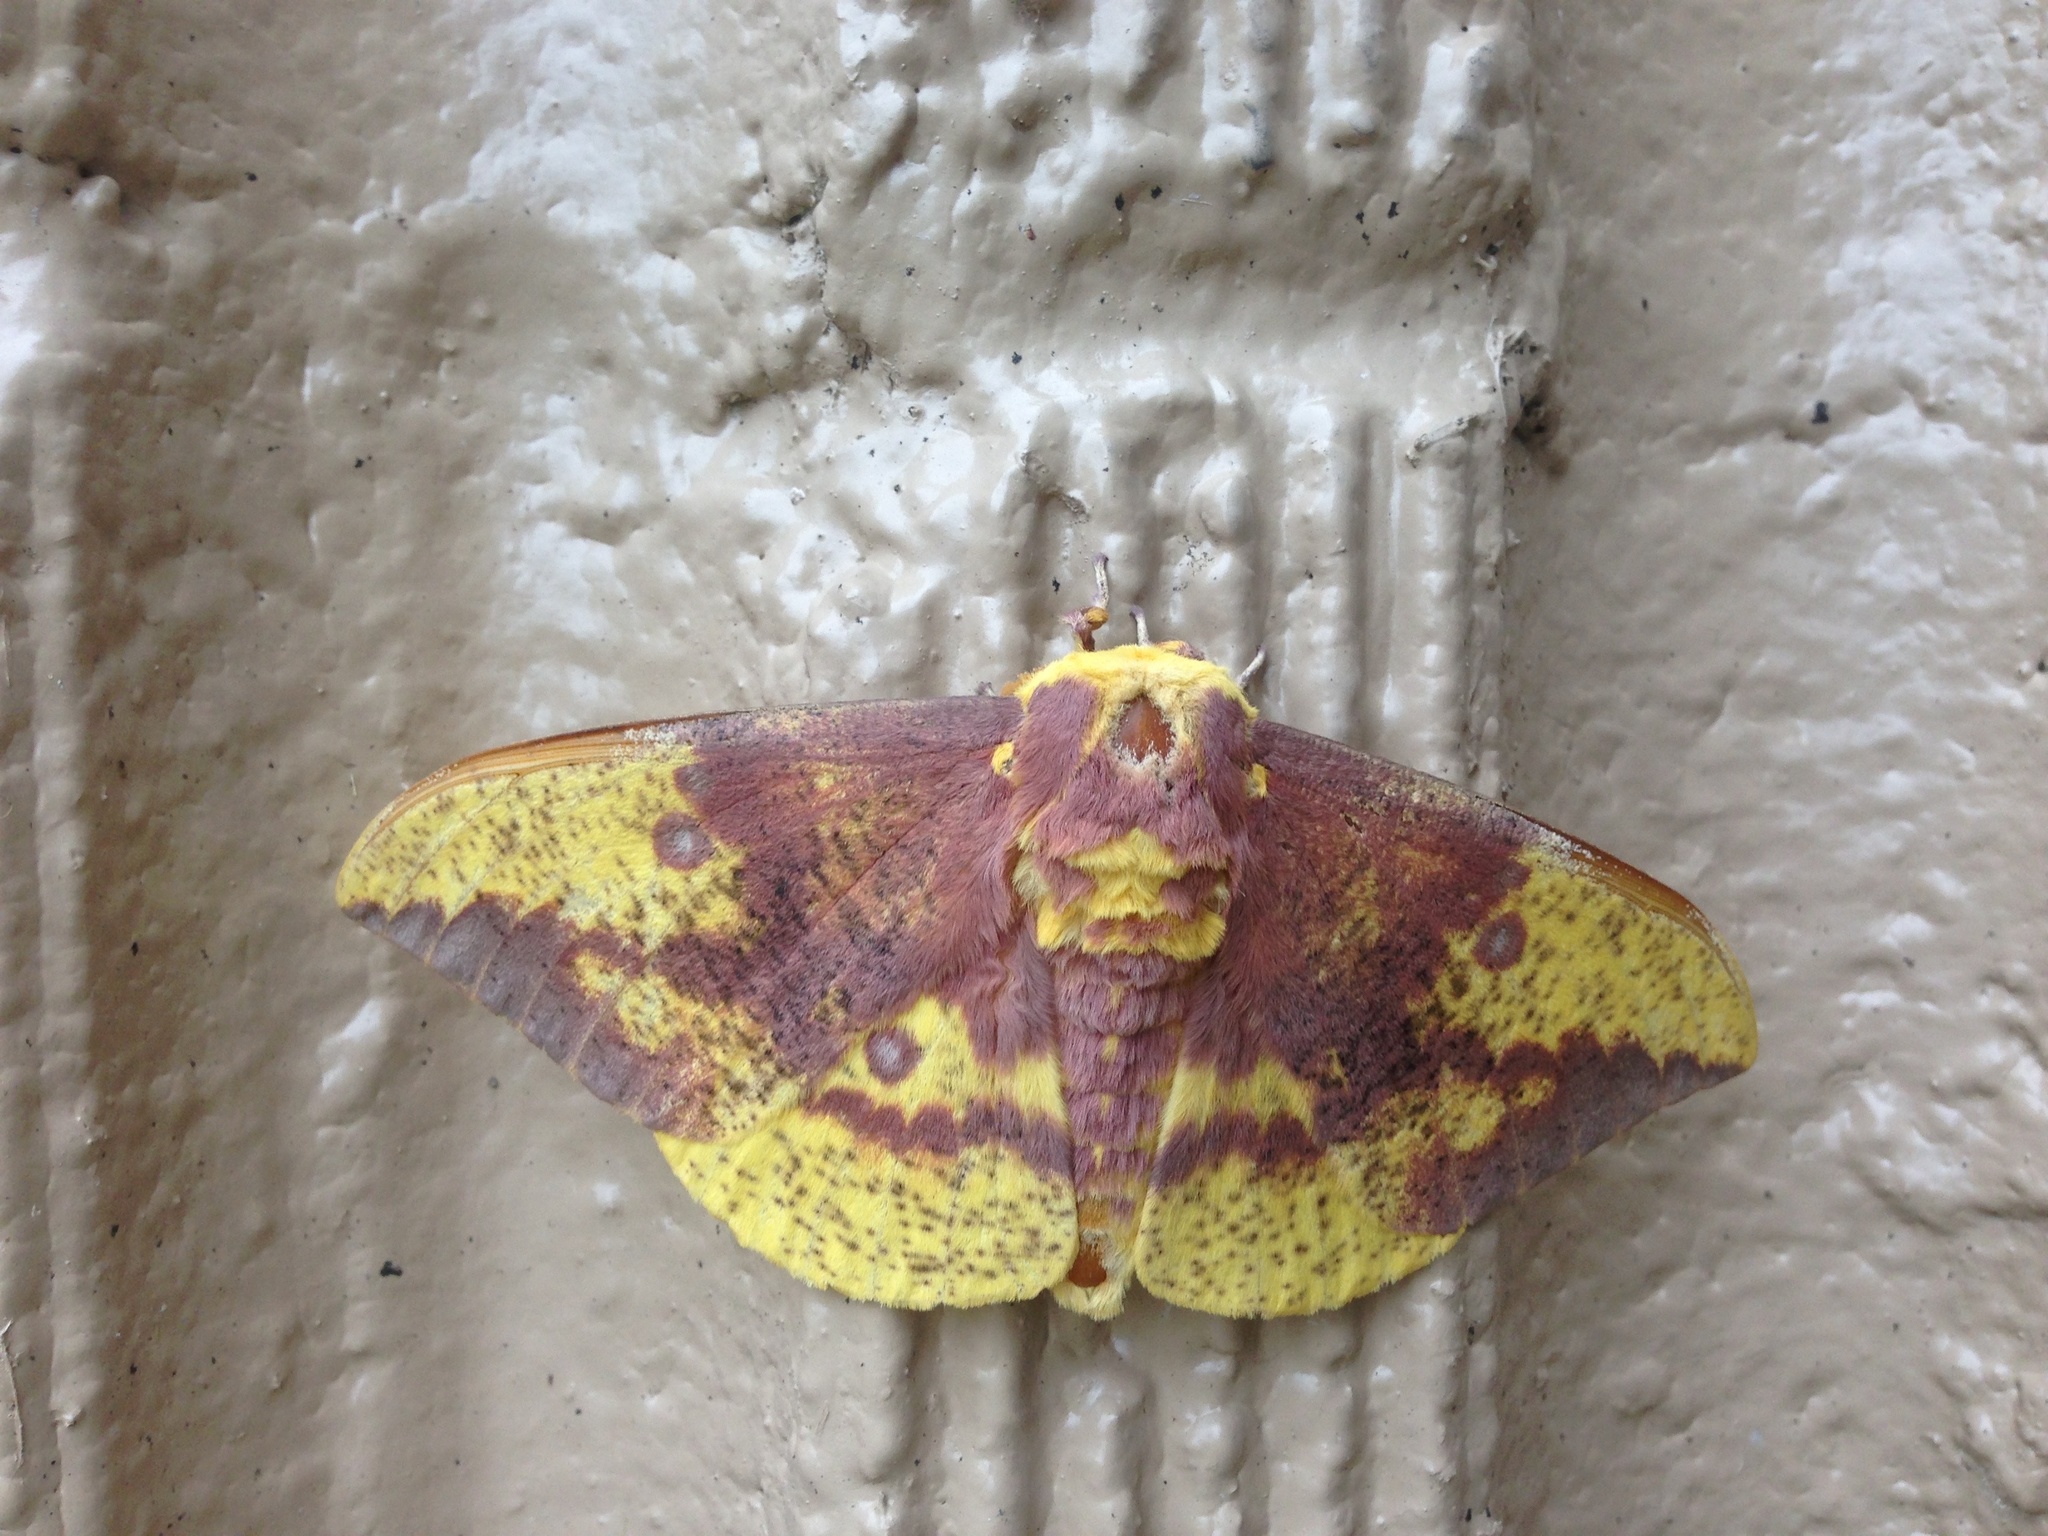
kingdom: Animalia
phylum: Arthropoda
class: Insecta
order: Lepidoptera
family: Saturniidae
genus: Eacles
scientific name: Eacles imperialis
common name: Imperial moth
